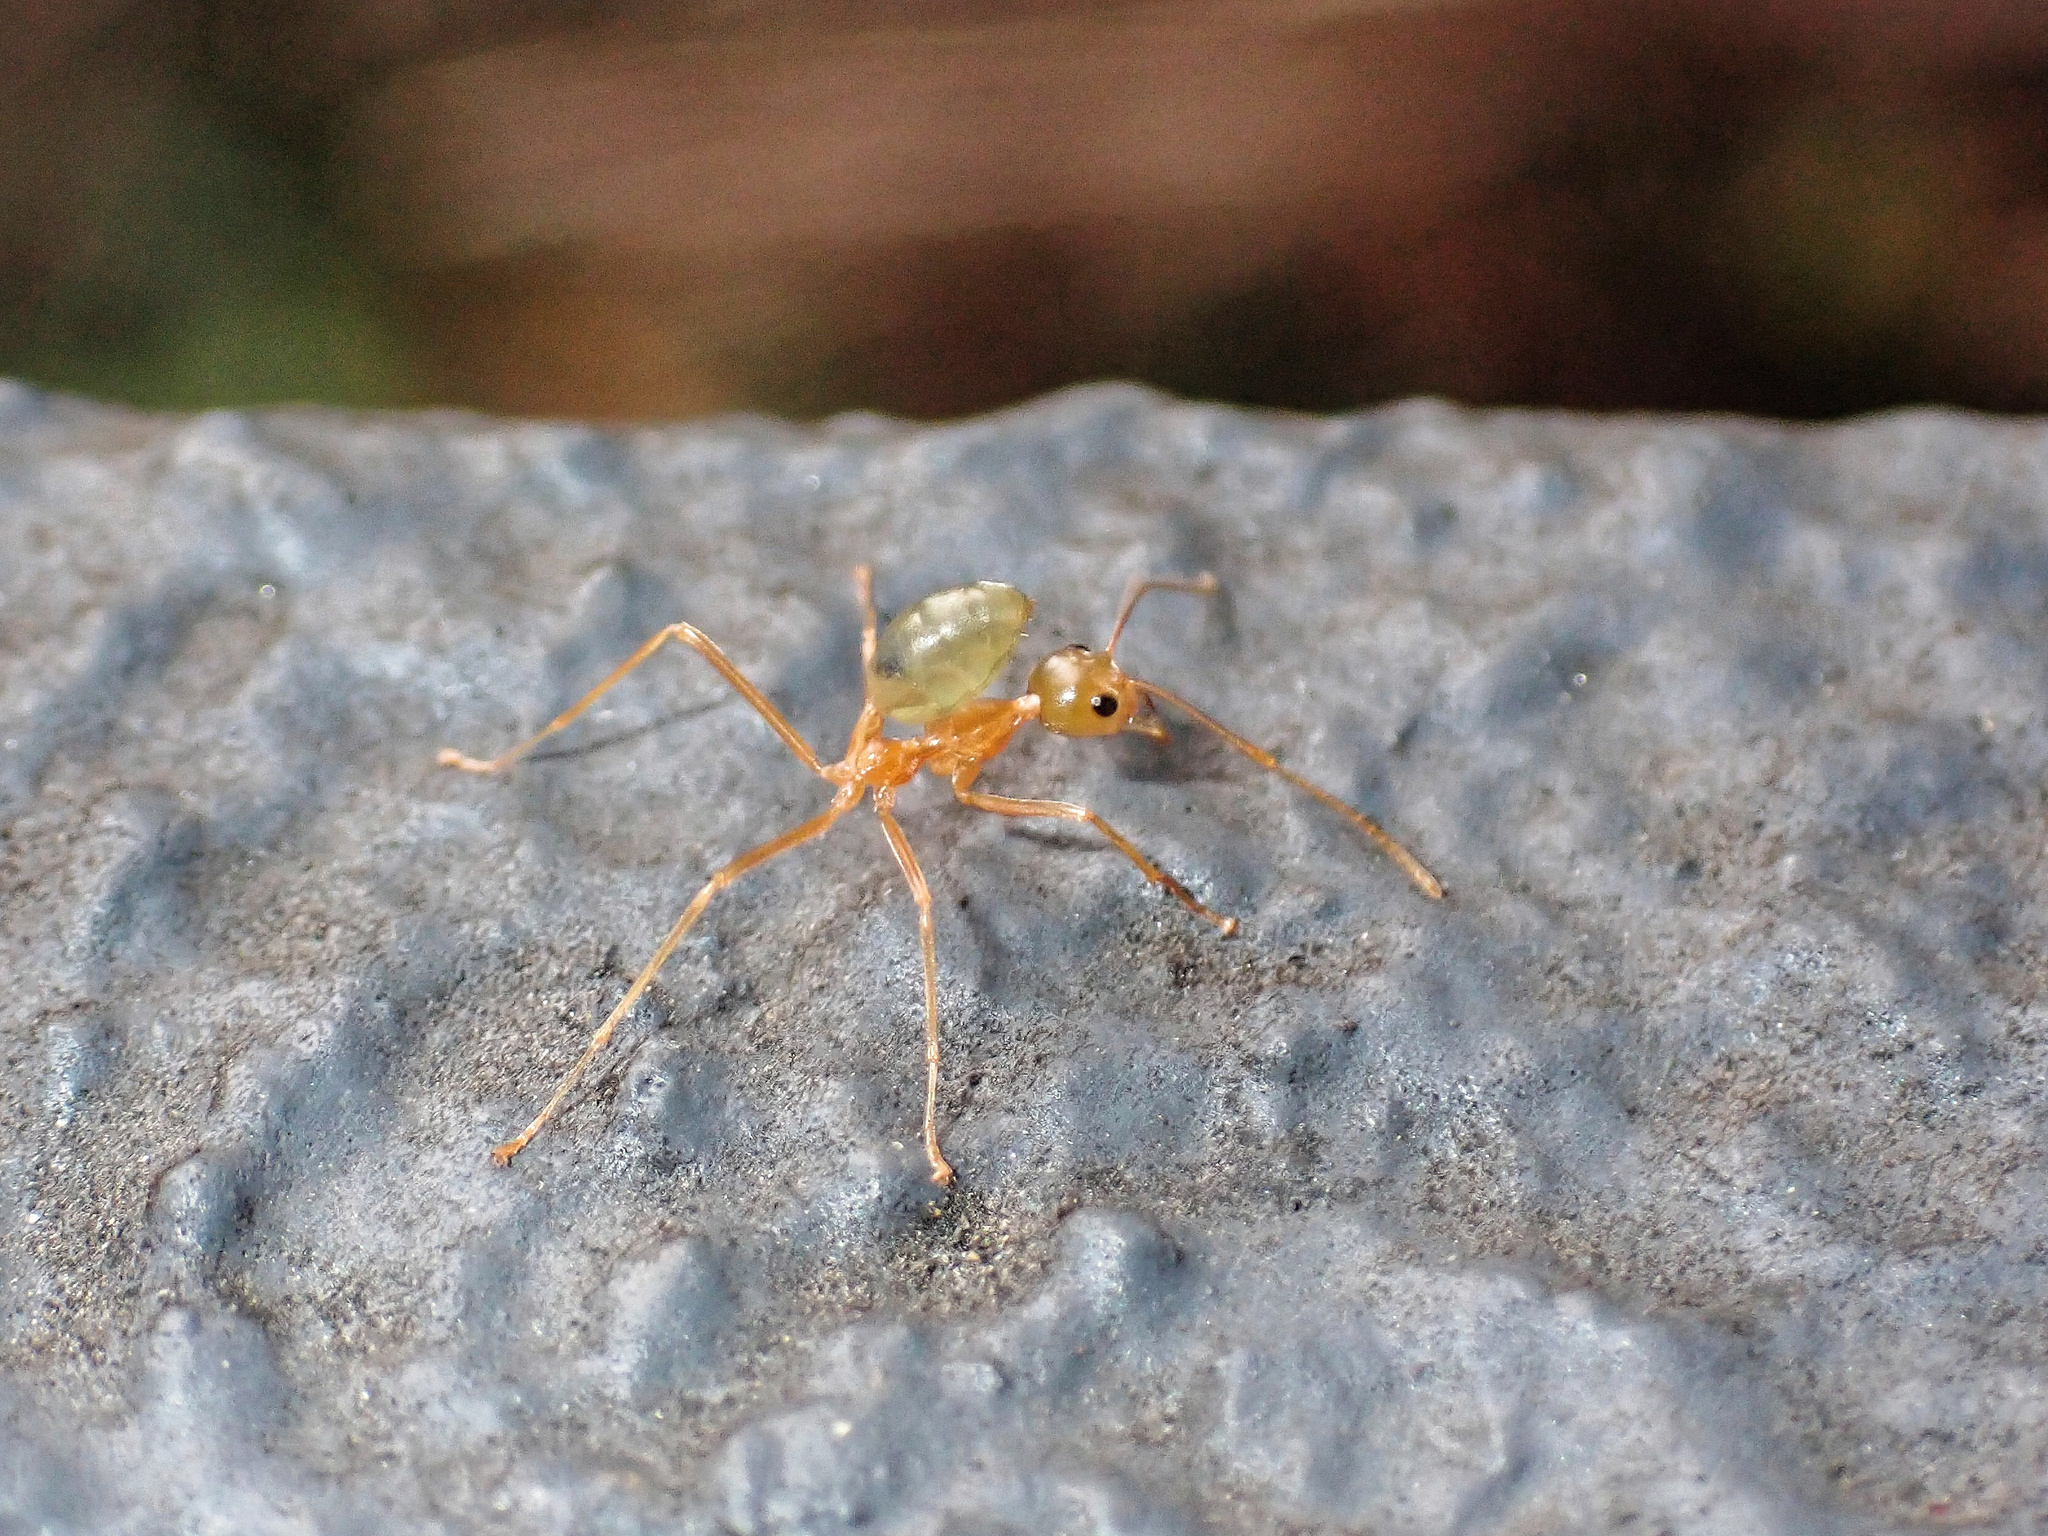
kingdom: Animalia
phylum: Arthropoda
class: Insecta
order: Hymenoptera
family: Formicidae
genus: Oecophylla
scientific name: Oecophylla smaragdina
